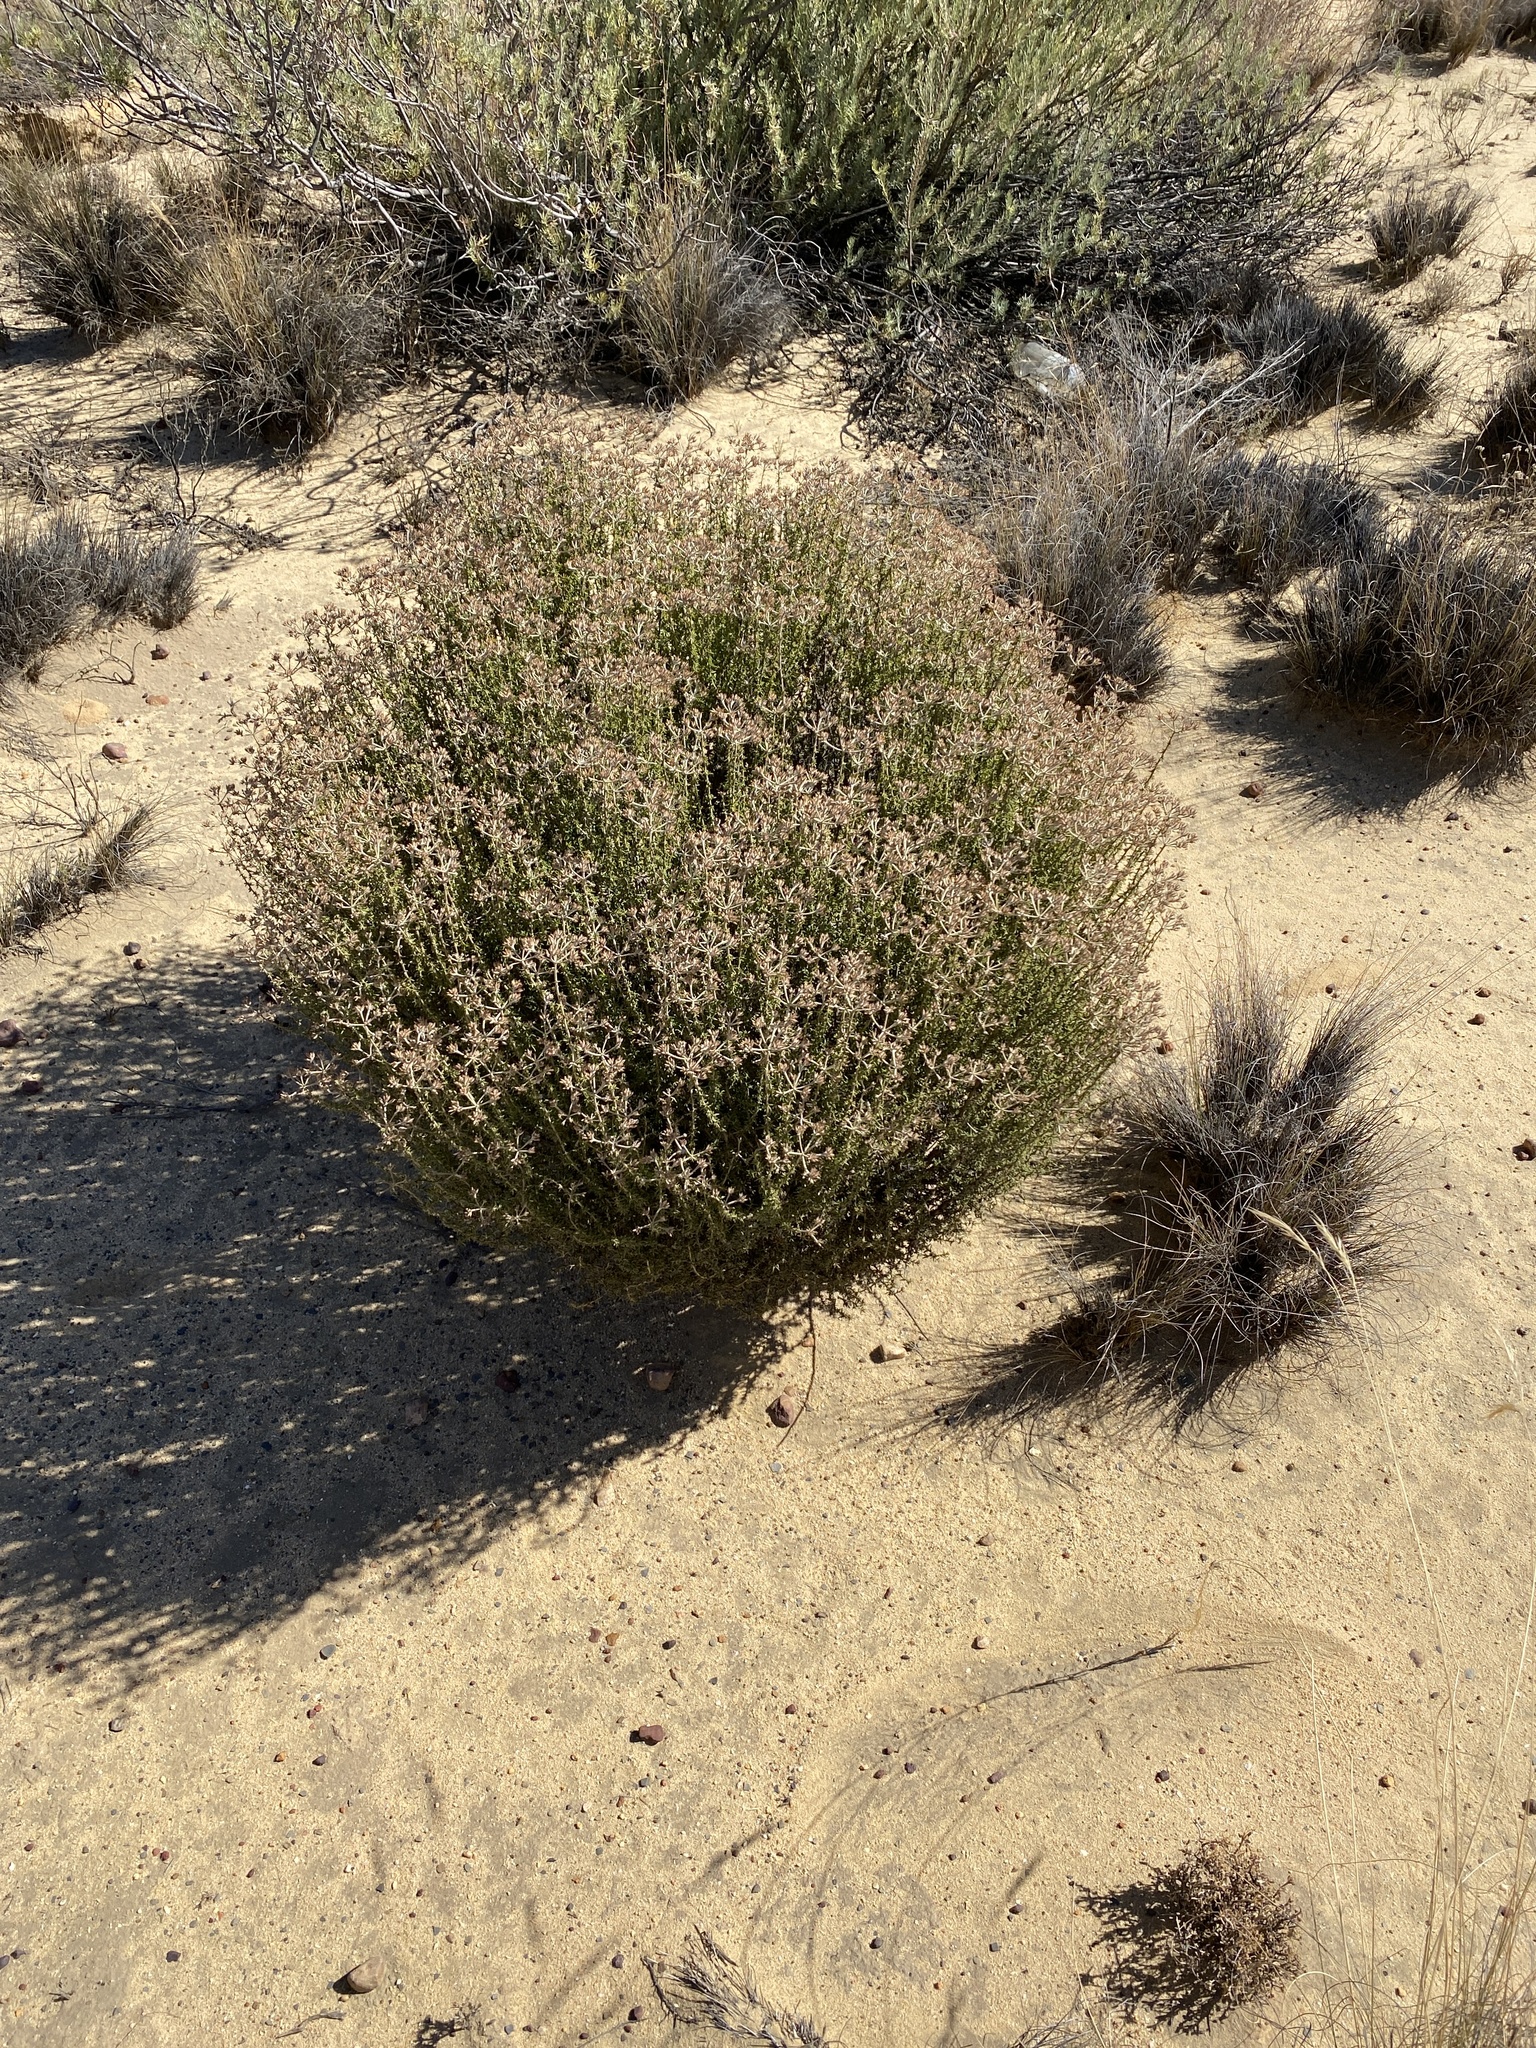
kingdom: Plantae
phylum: Tracheophyta
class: Magnoliopsida
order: Asterales
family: Asteraceae
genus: Metalasia
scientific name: Metalasia dregeana
